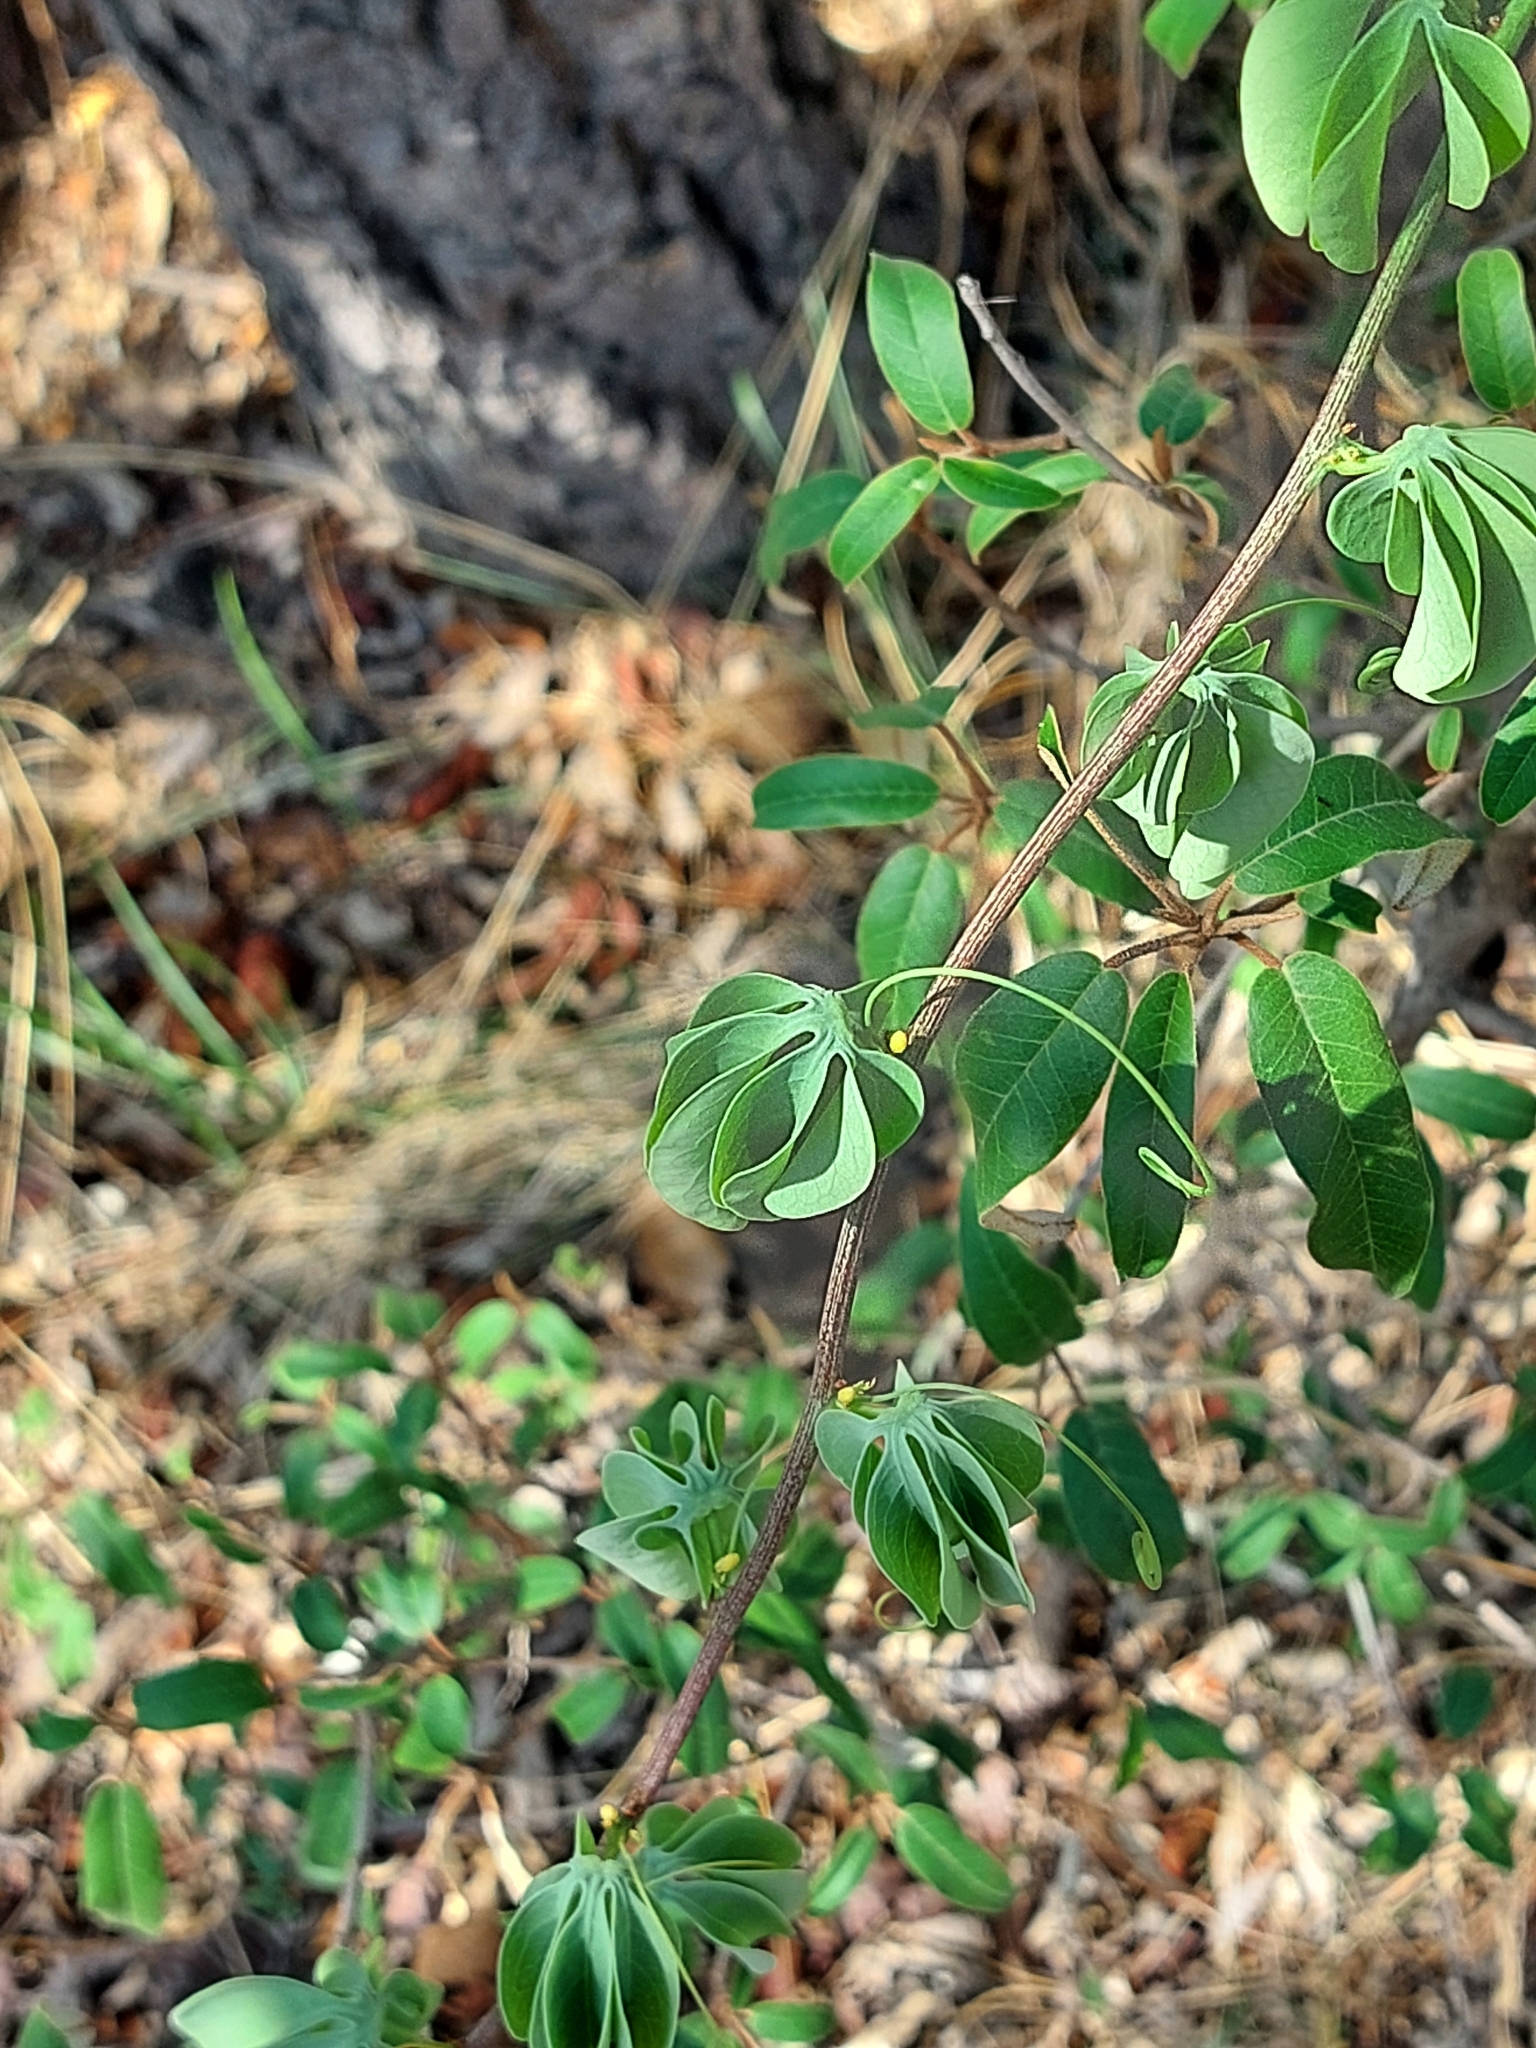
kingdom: Plantae
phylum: Tracheophyta
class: Magnoliopsida
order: Malpighiales
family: Passifloraceae
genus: Adenia
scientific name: Adenia glauca
